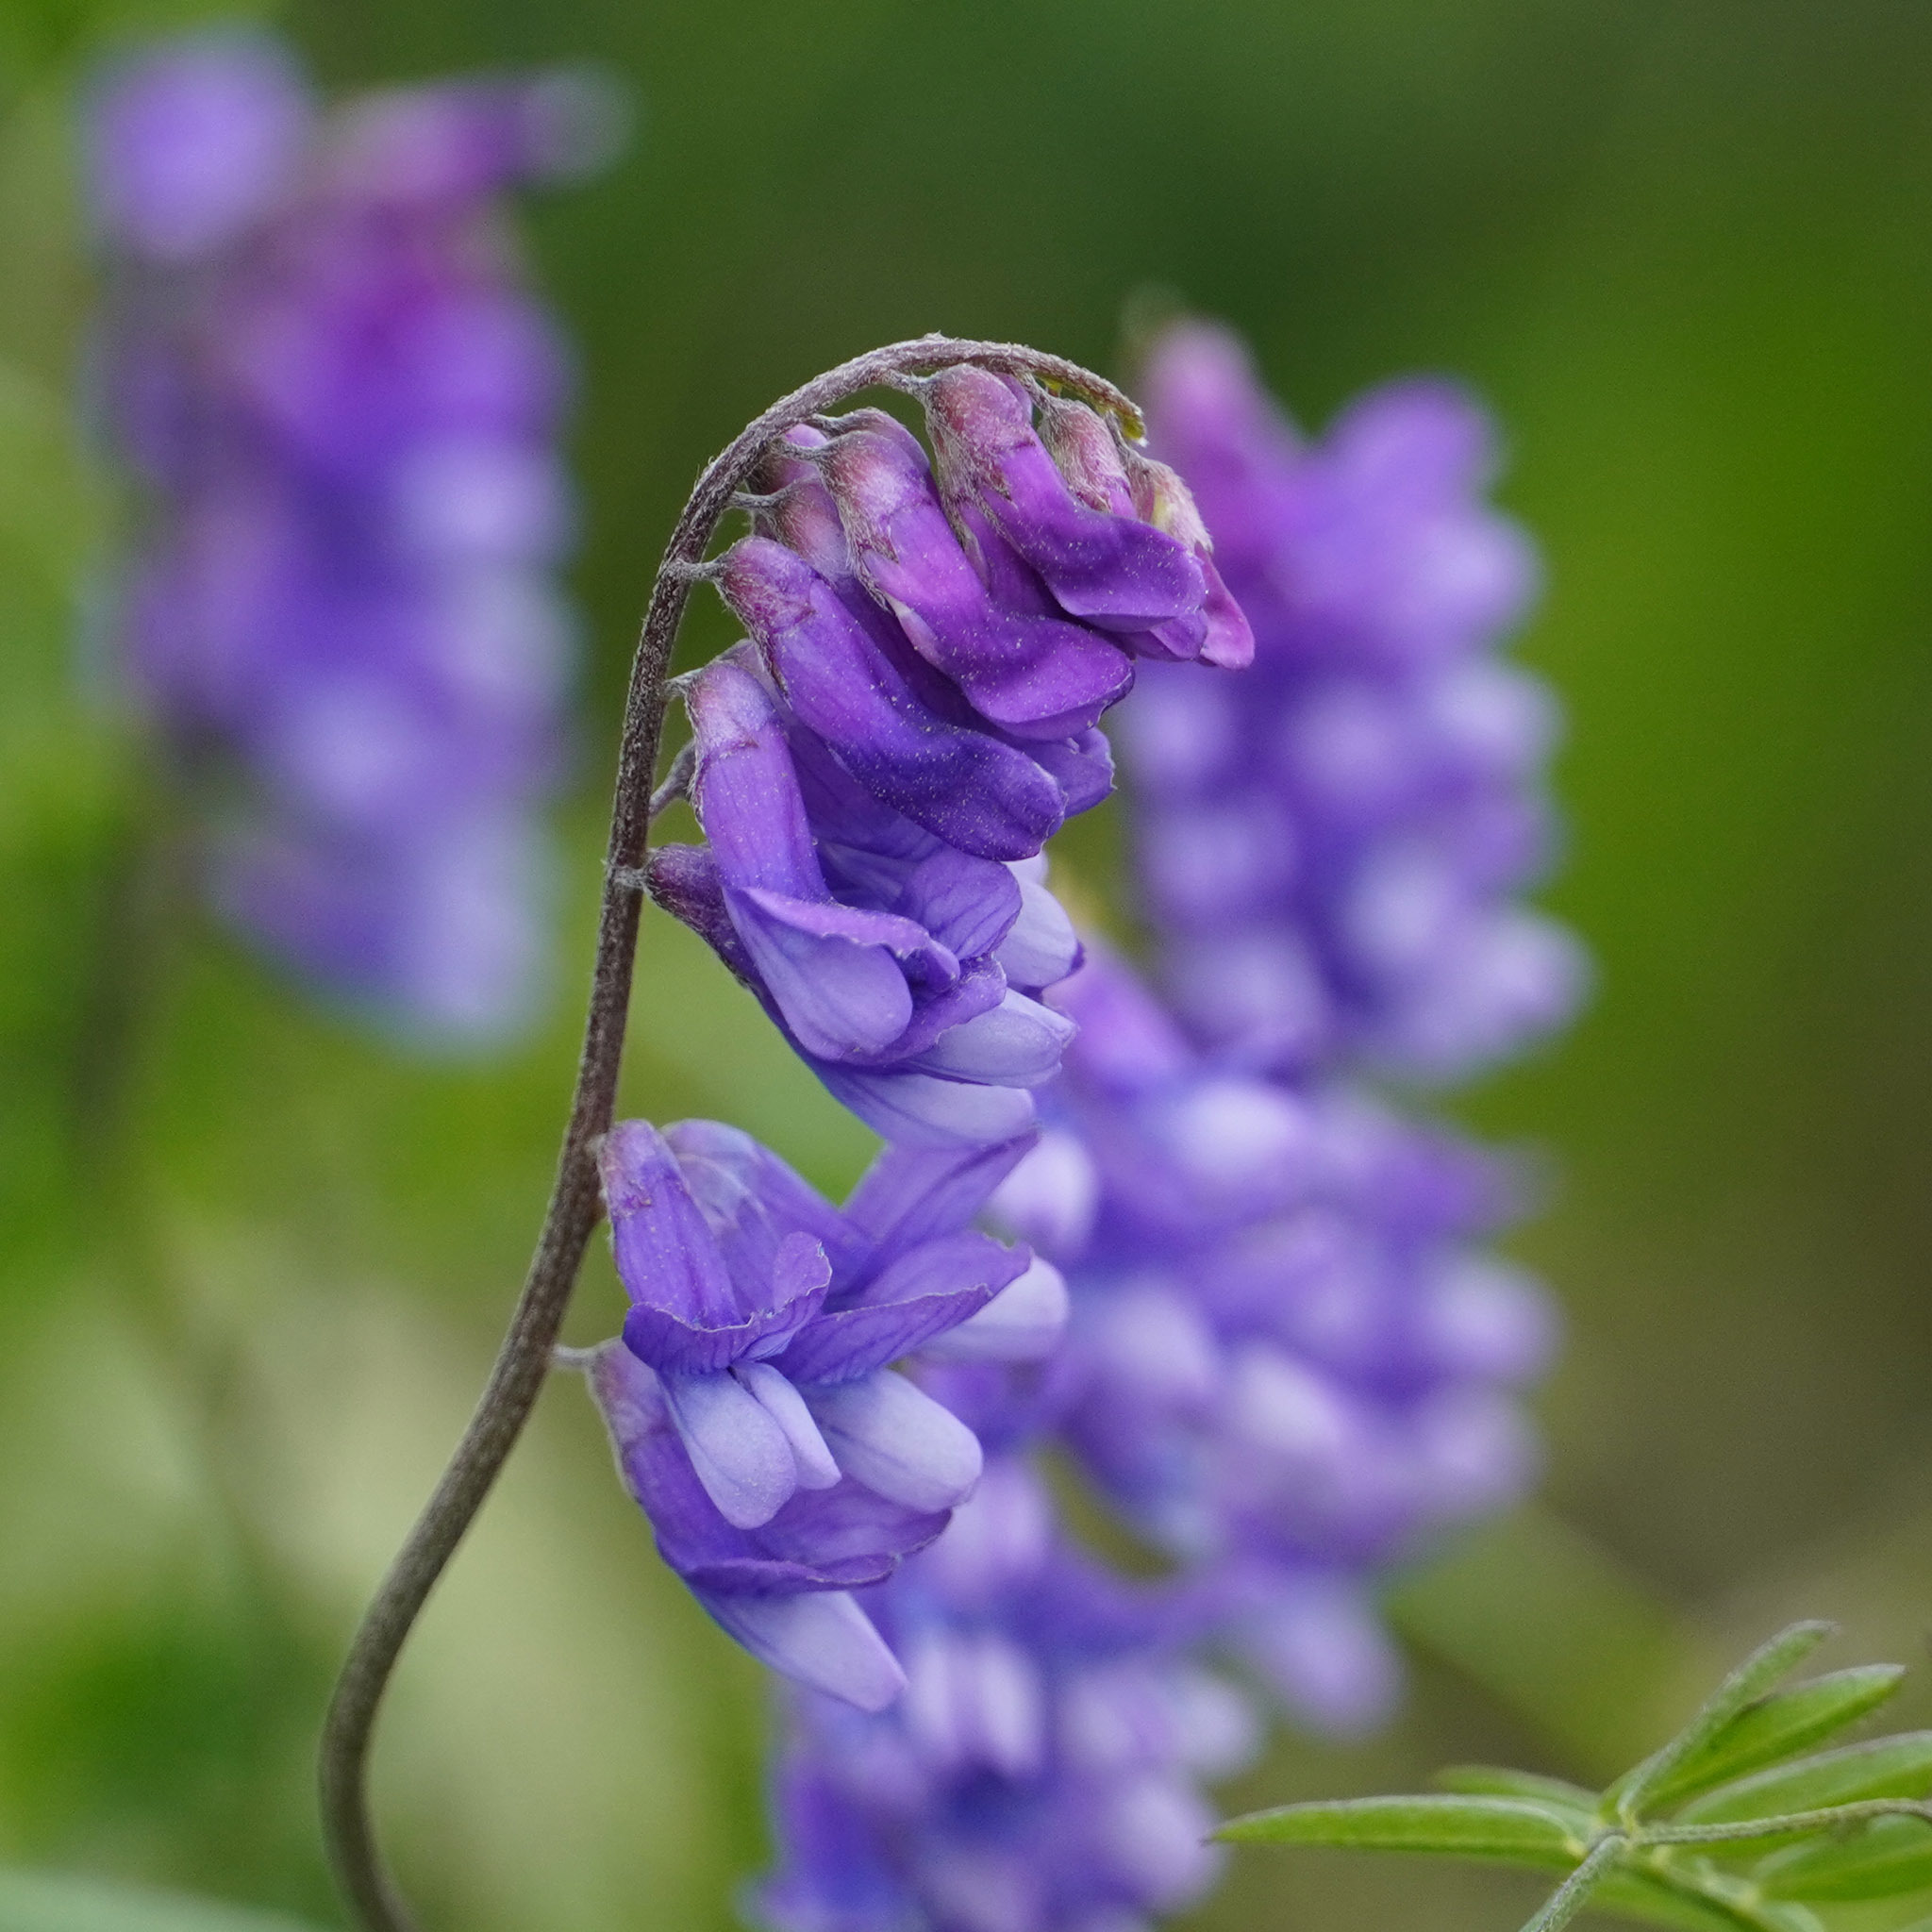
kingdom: Plantae
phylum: Tracheophyta
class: Magnoliopsida
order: Fabales
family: Fabaceae
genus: Vicia
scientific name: Vicia cracca
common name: Bird vetch
